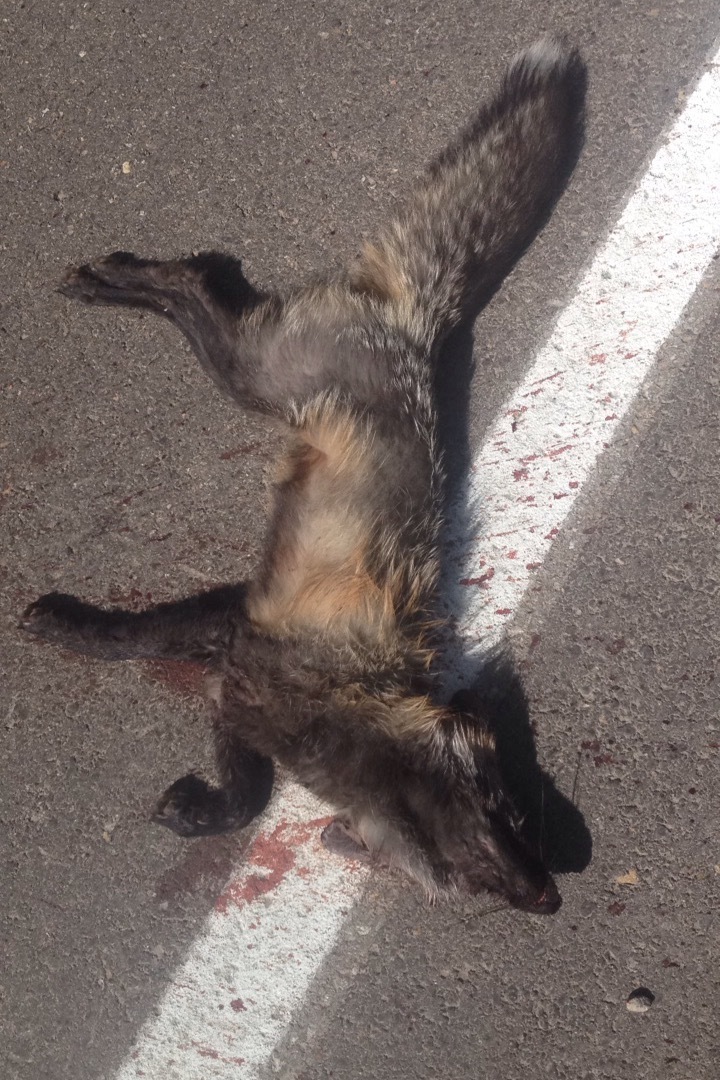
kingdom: Animalia
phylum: Chordata
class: Mammalia
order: Carnivora
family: Canidae
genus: Vulpes
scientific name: Vulpes vulpes
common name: Red fox
